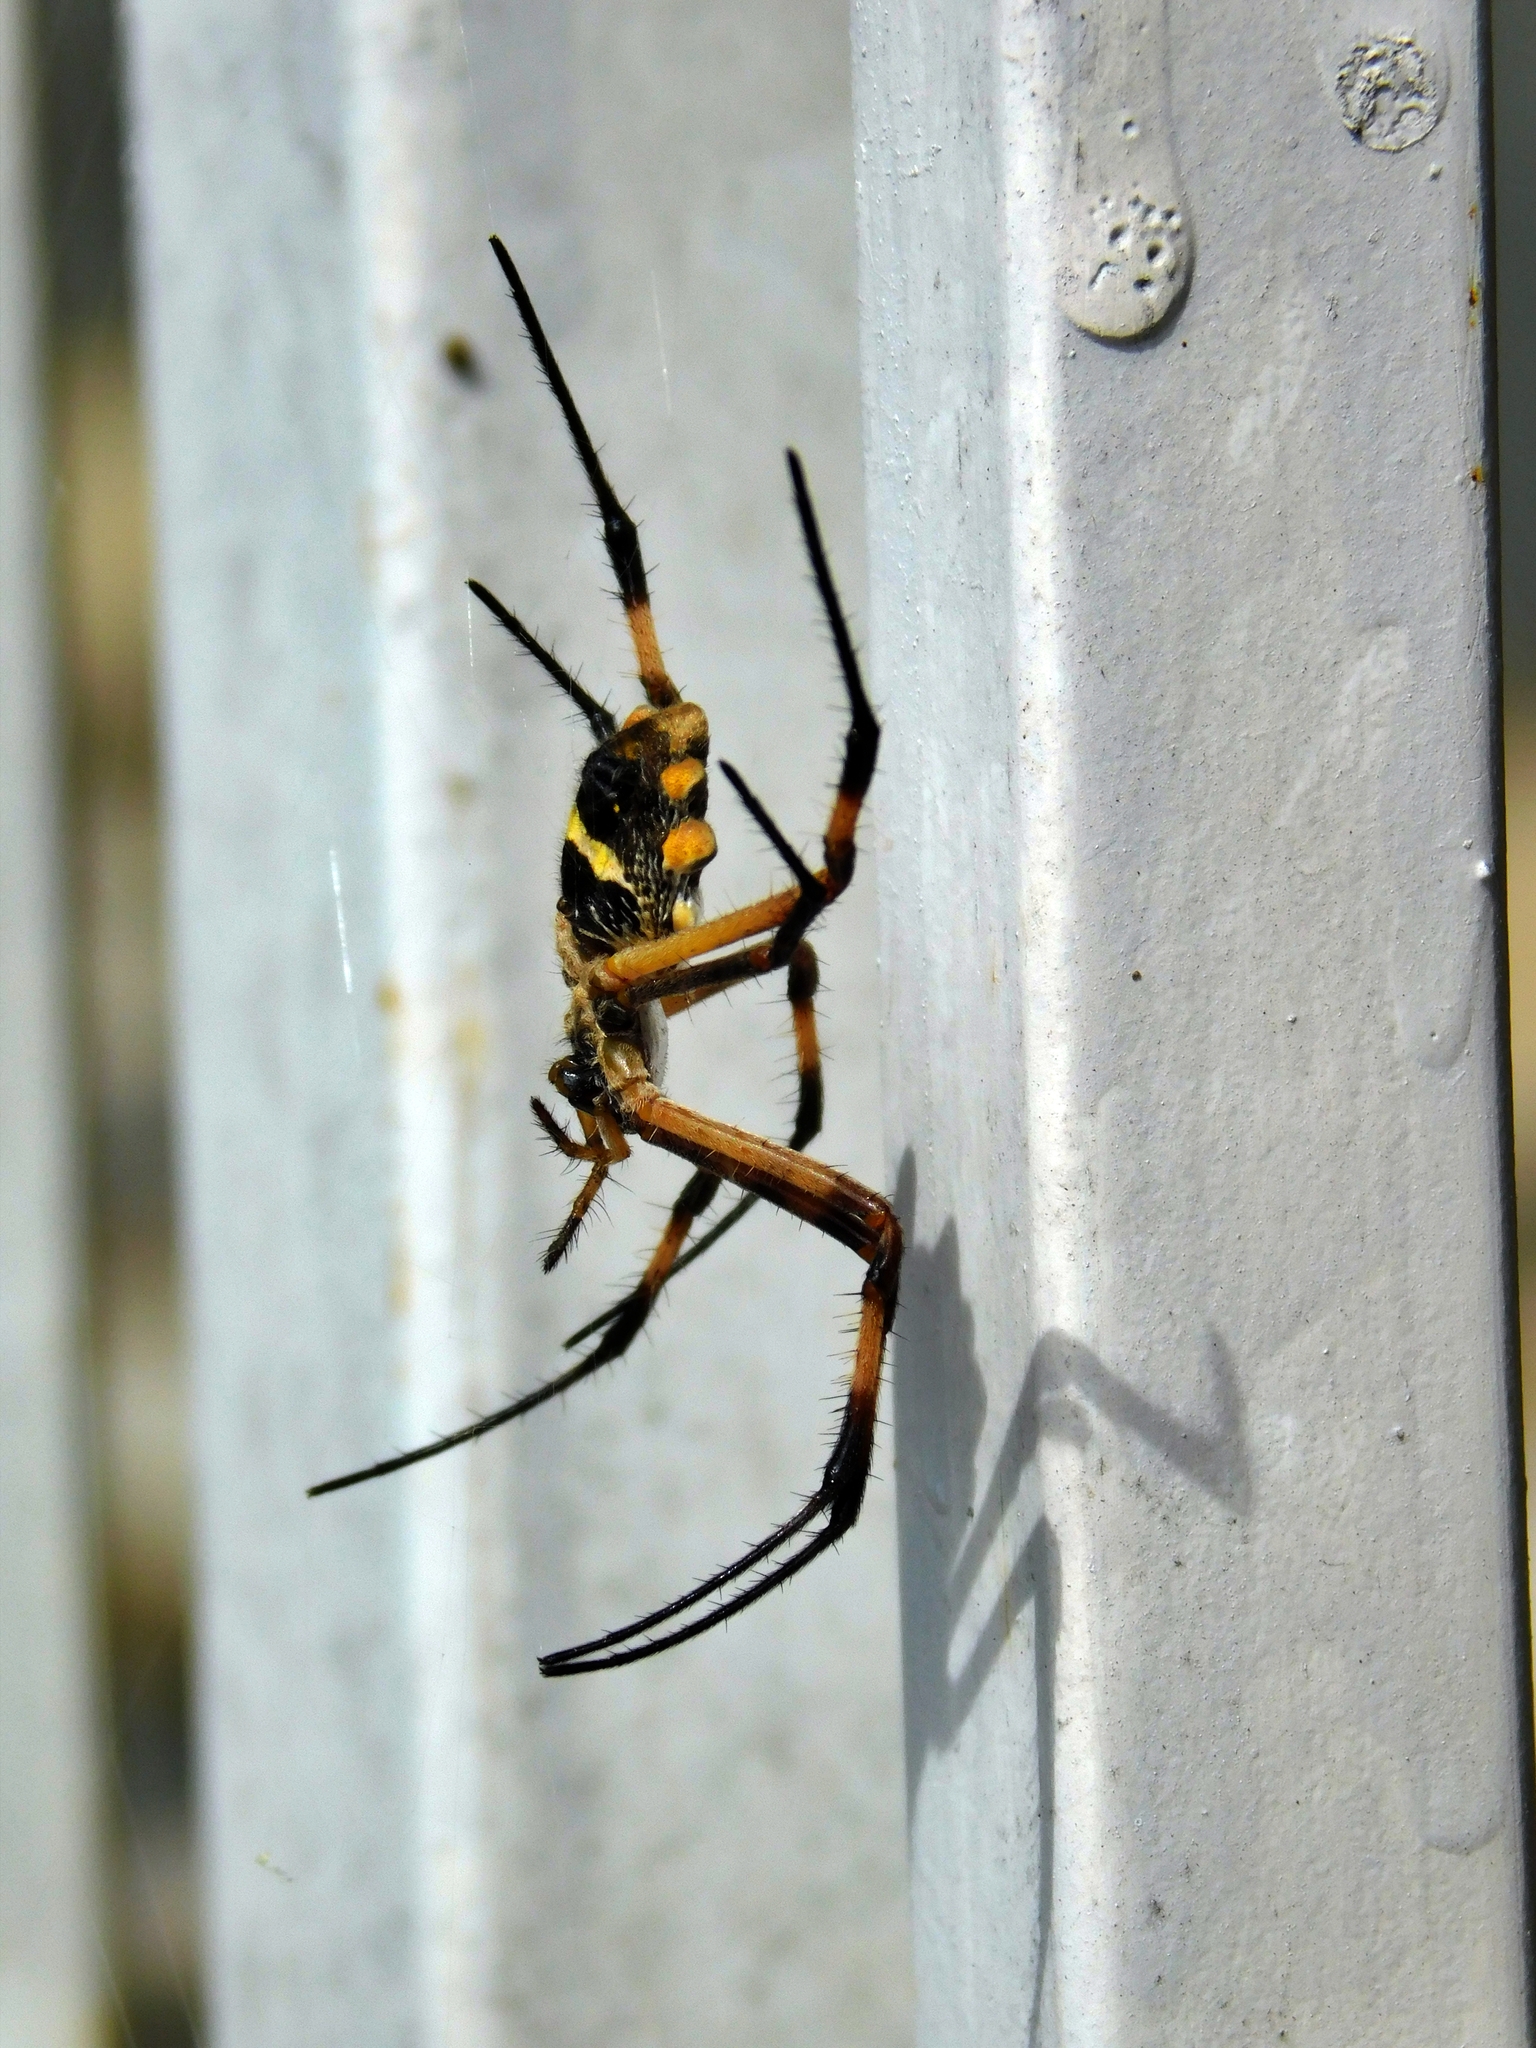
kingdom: Animalia
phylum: Arthropoda
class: Arachnida
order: Araneae
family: Araneidae
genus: Argiope
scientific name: Argiope argentata
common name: Orb weavers
